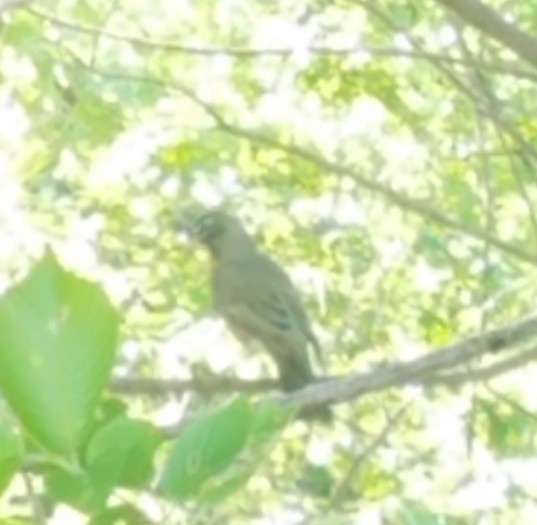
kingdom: Animalia
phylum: Chordata
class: Aves
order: Passeriformes
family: Turdidae
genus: Turdus
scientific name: Turdus migratorius
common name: American robin
